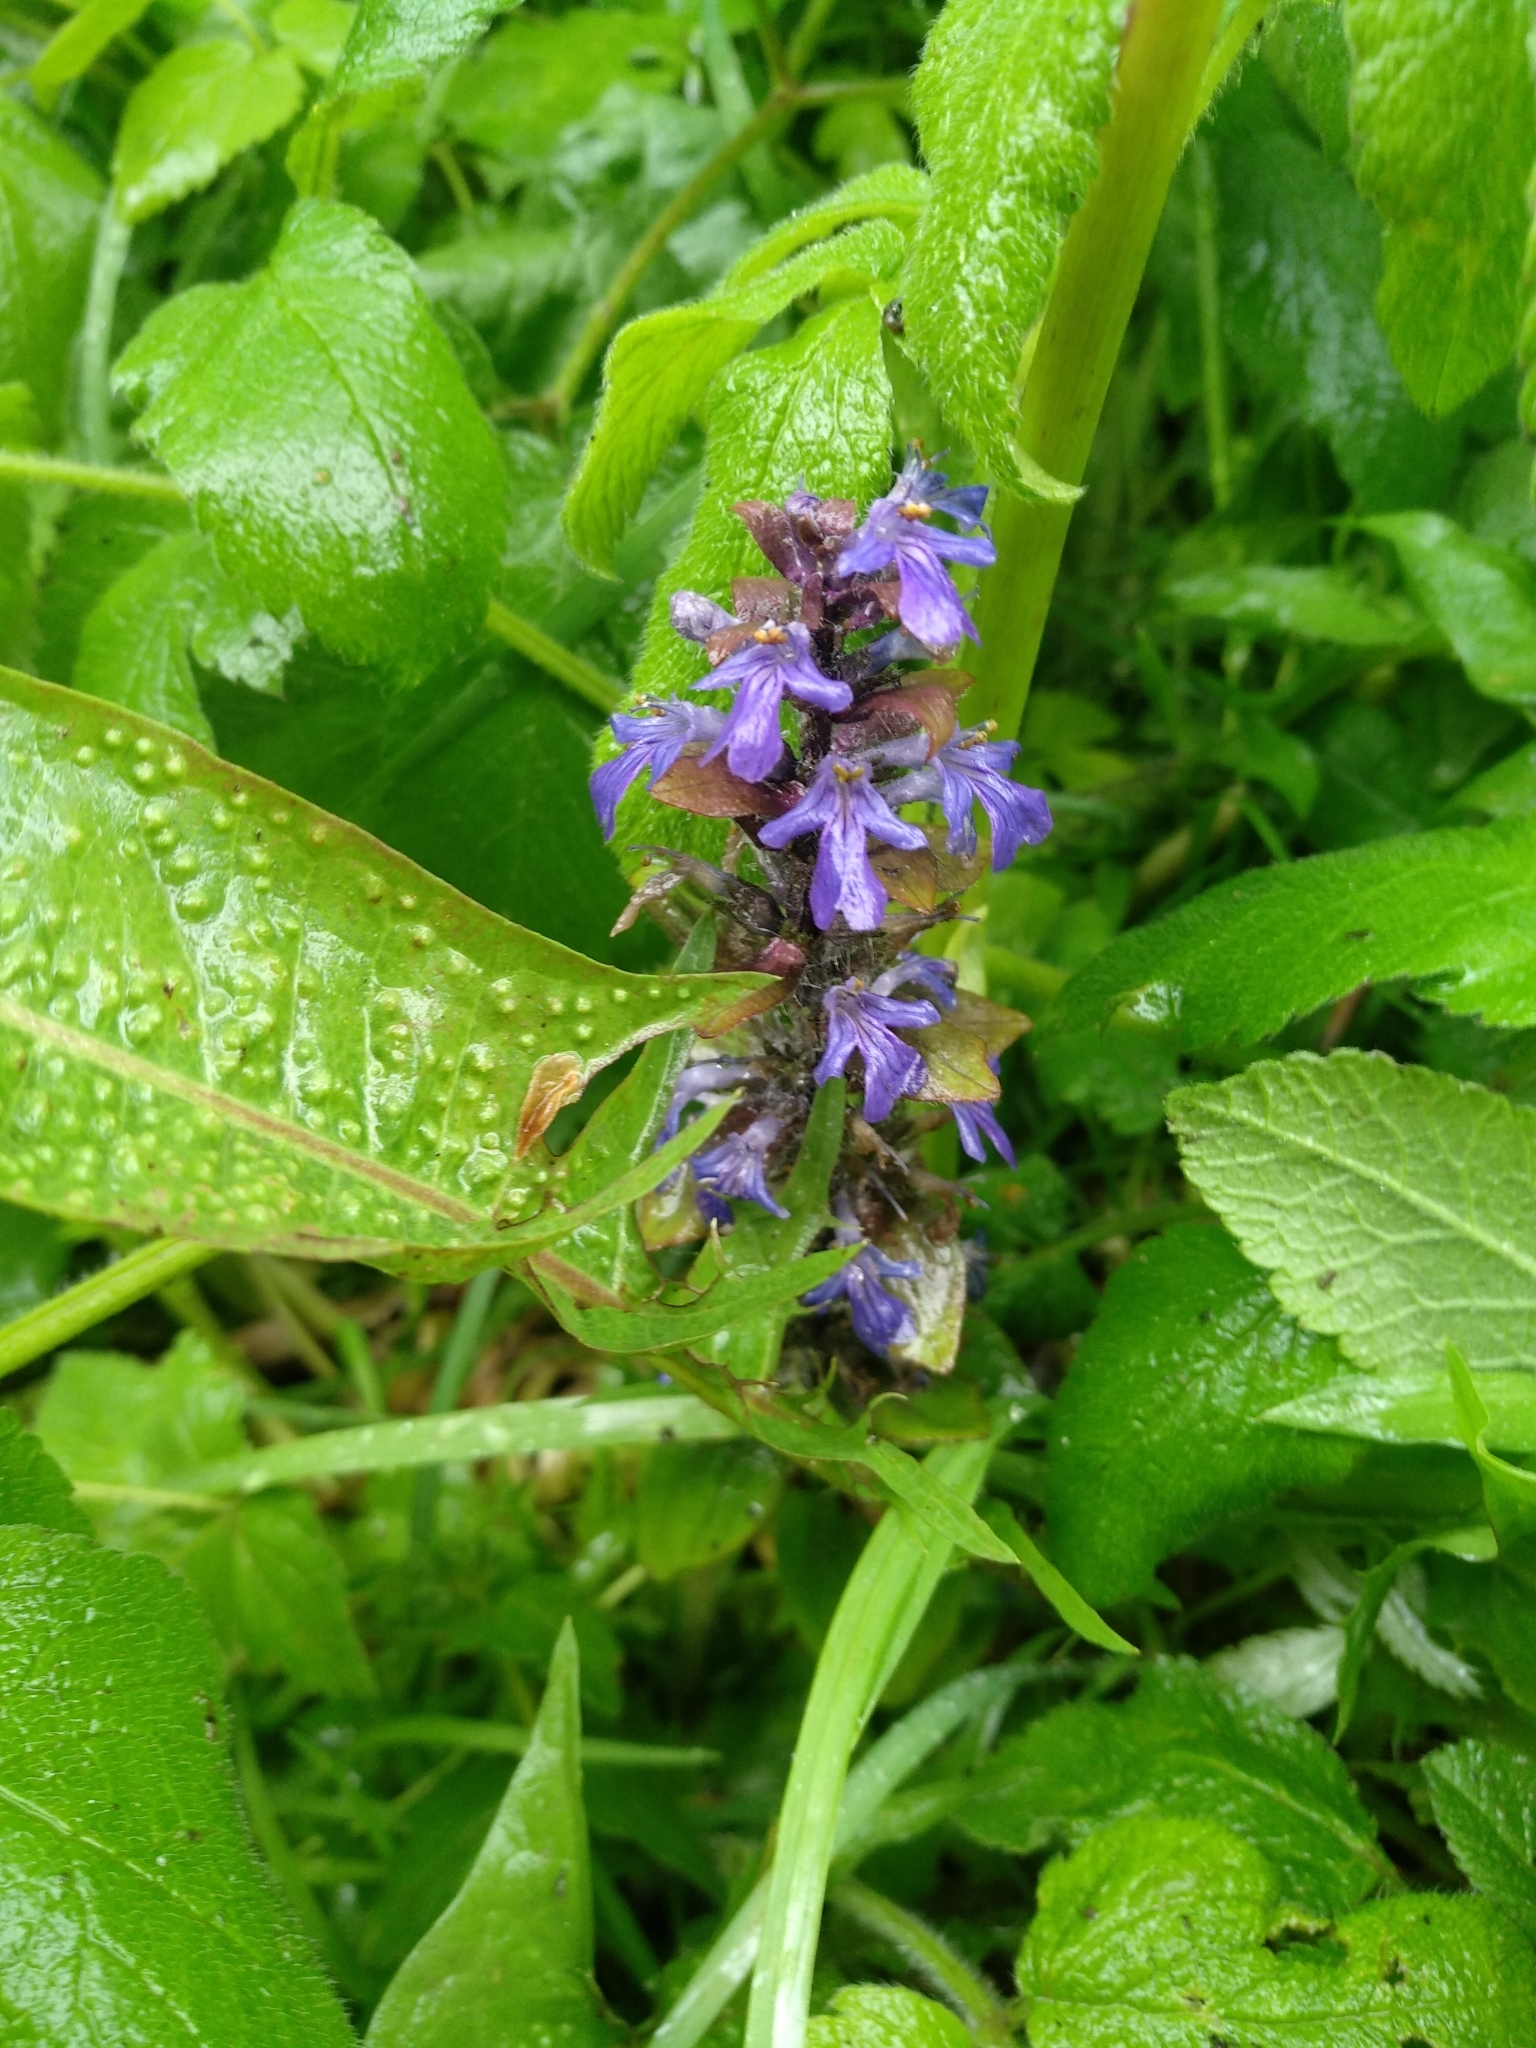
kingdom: Plantae
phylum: Tracheophyta
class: Magnoliopsida
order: Lamiales
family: Lamiaceae
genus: Ajuga
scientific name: Ajuga reptans
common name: Bugle
